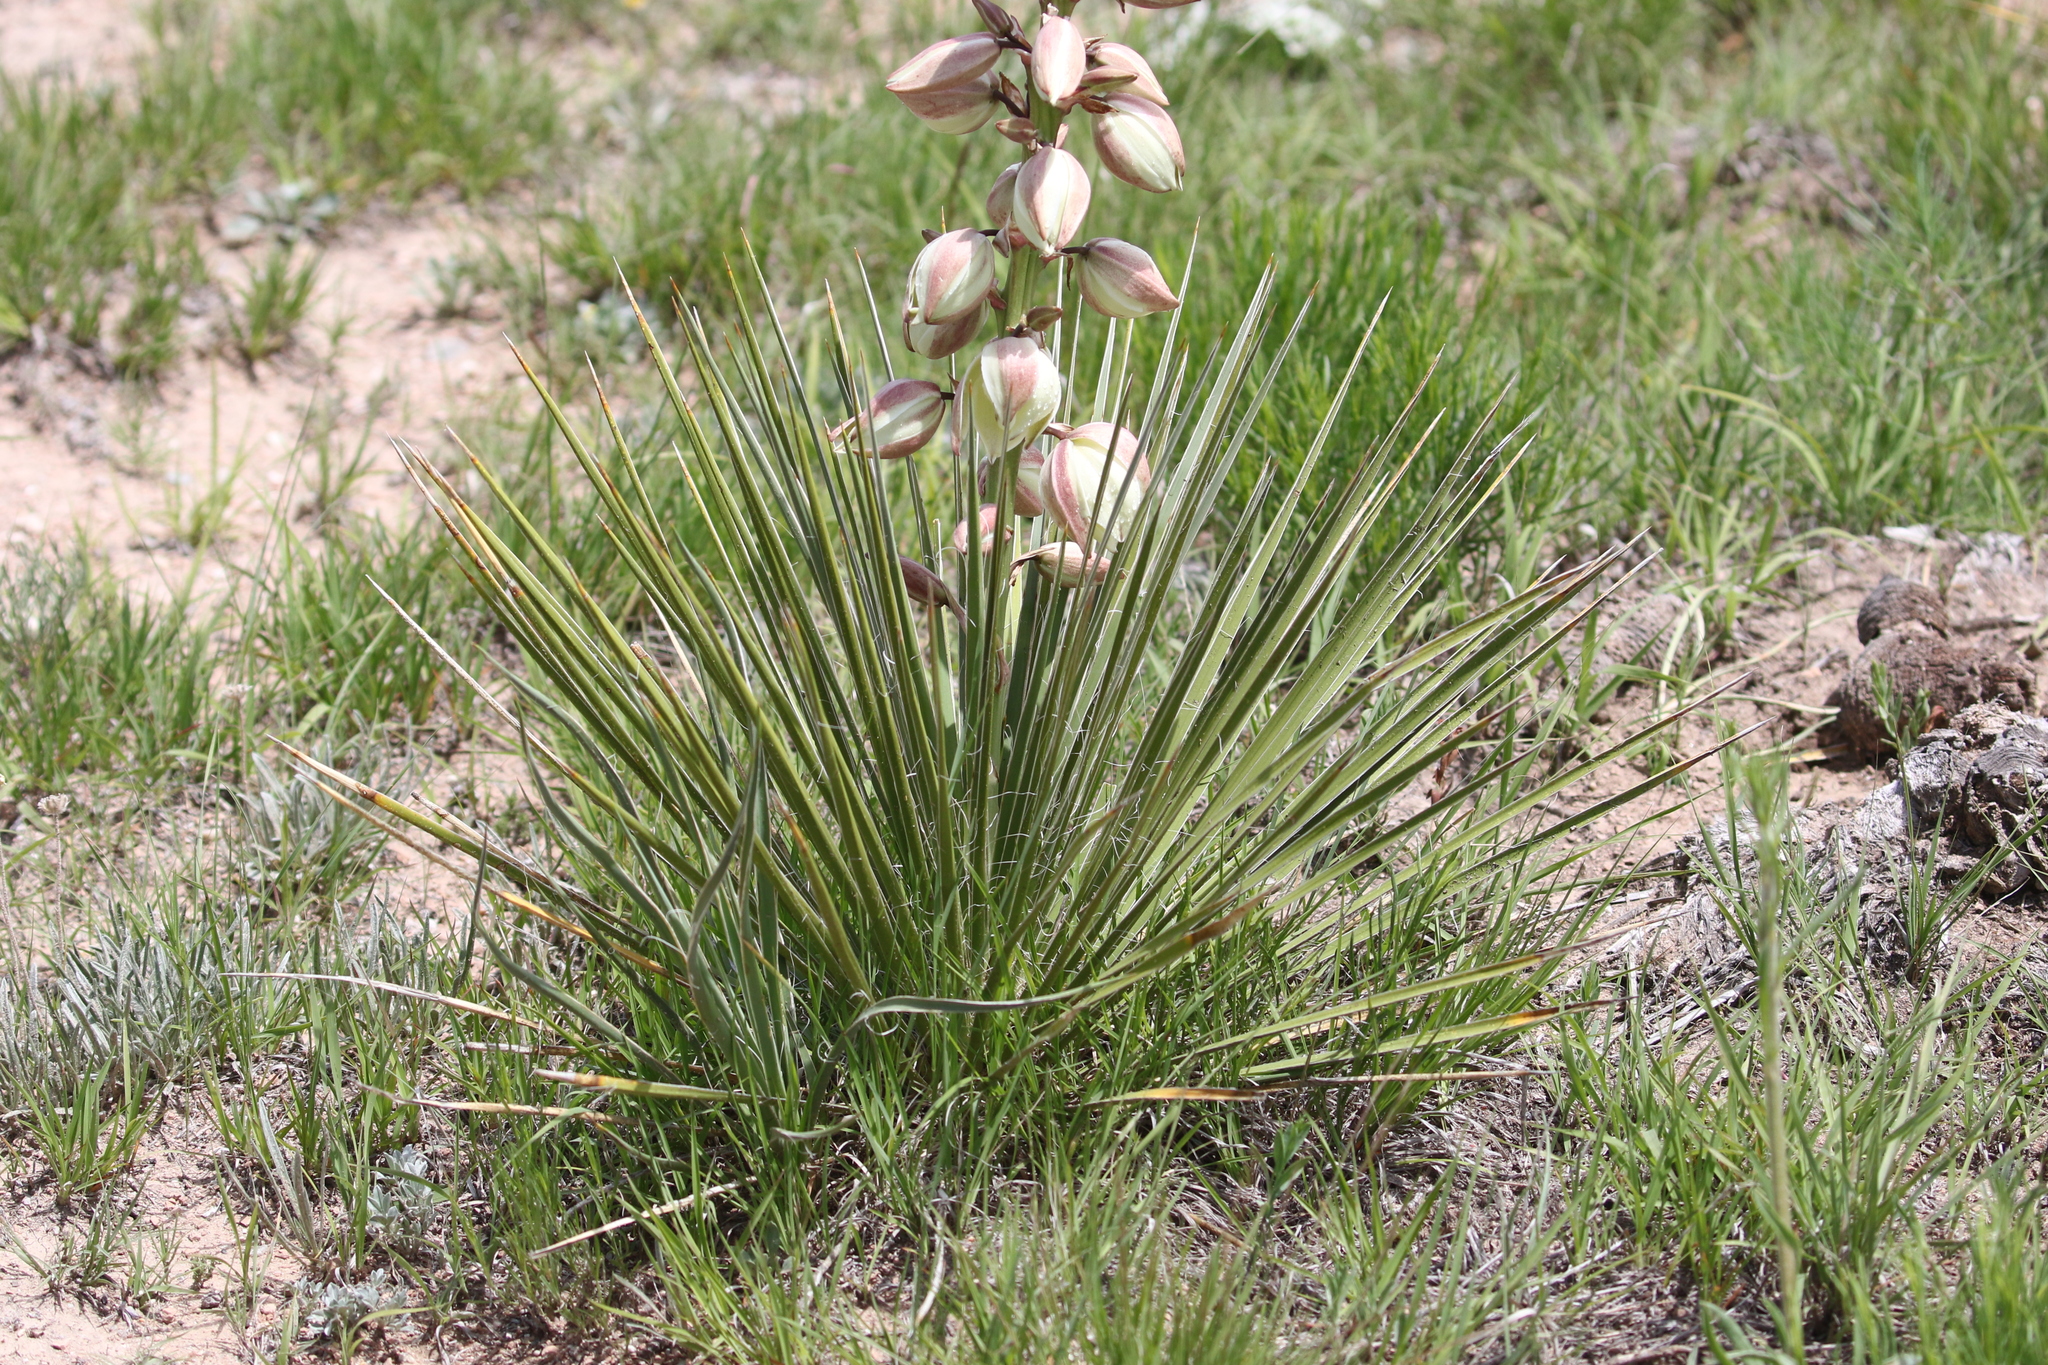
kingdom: Plantae
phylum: Tracheophyta
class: Liliopsida
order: Asparagales
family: Asparagaceae
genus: Yucca
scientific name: Yucca glauca
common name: Great plains yucca
